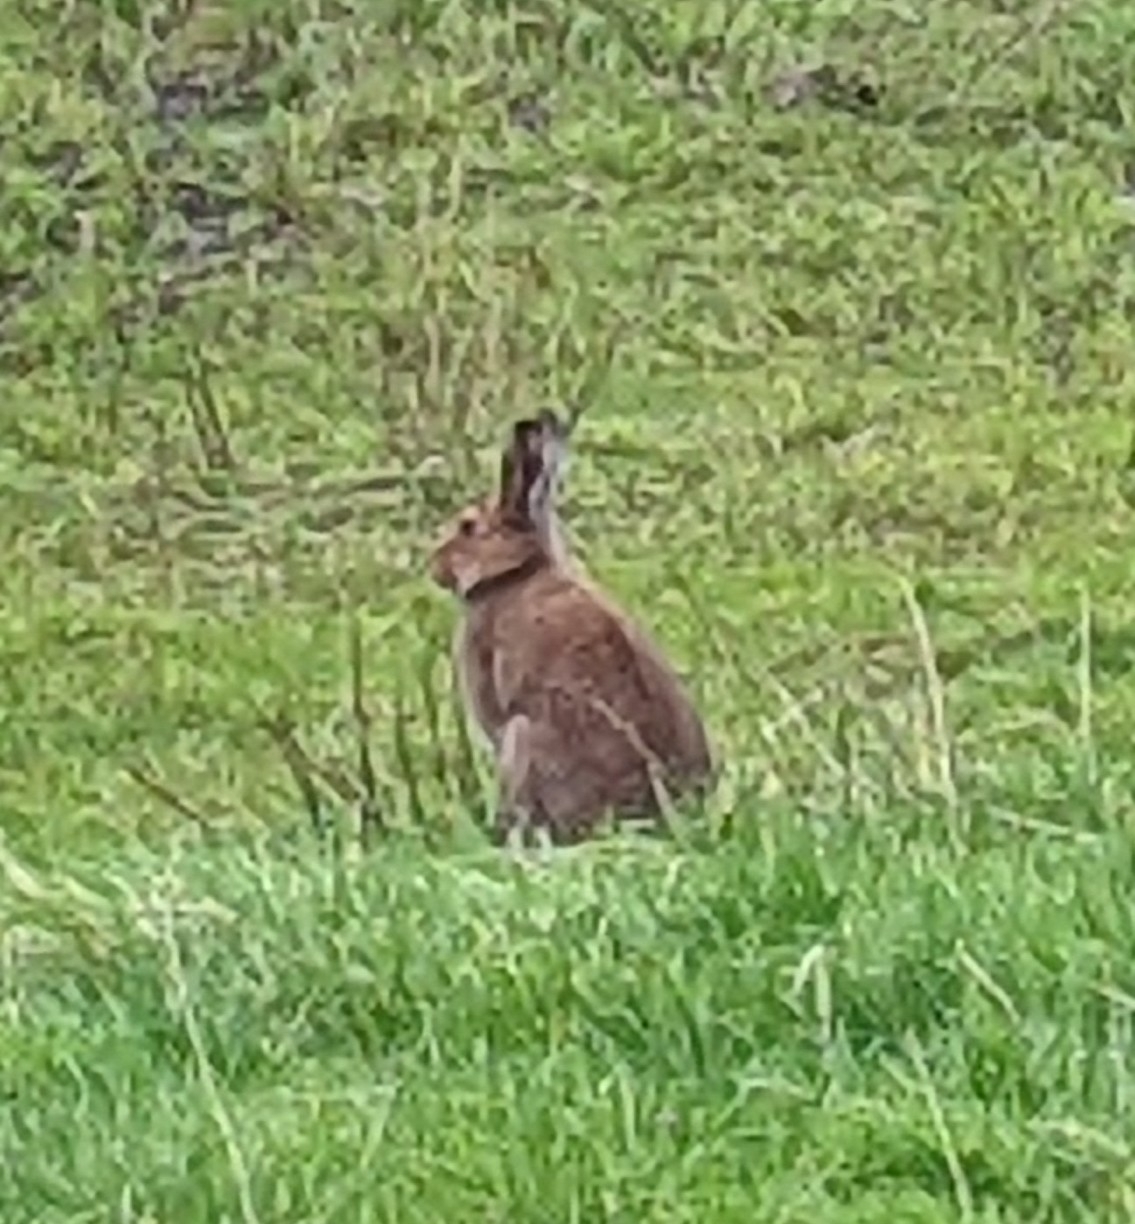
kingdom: Animalia
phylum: Chordata
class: Mammalia
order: Lagomorpha
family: Leporidae
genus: Lepus
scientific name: Lepus timidus
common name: Mountain hare
